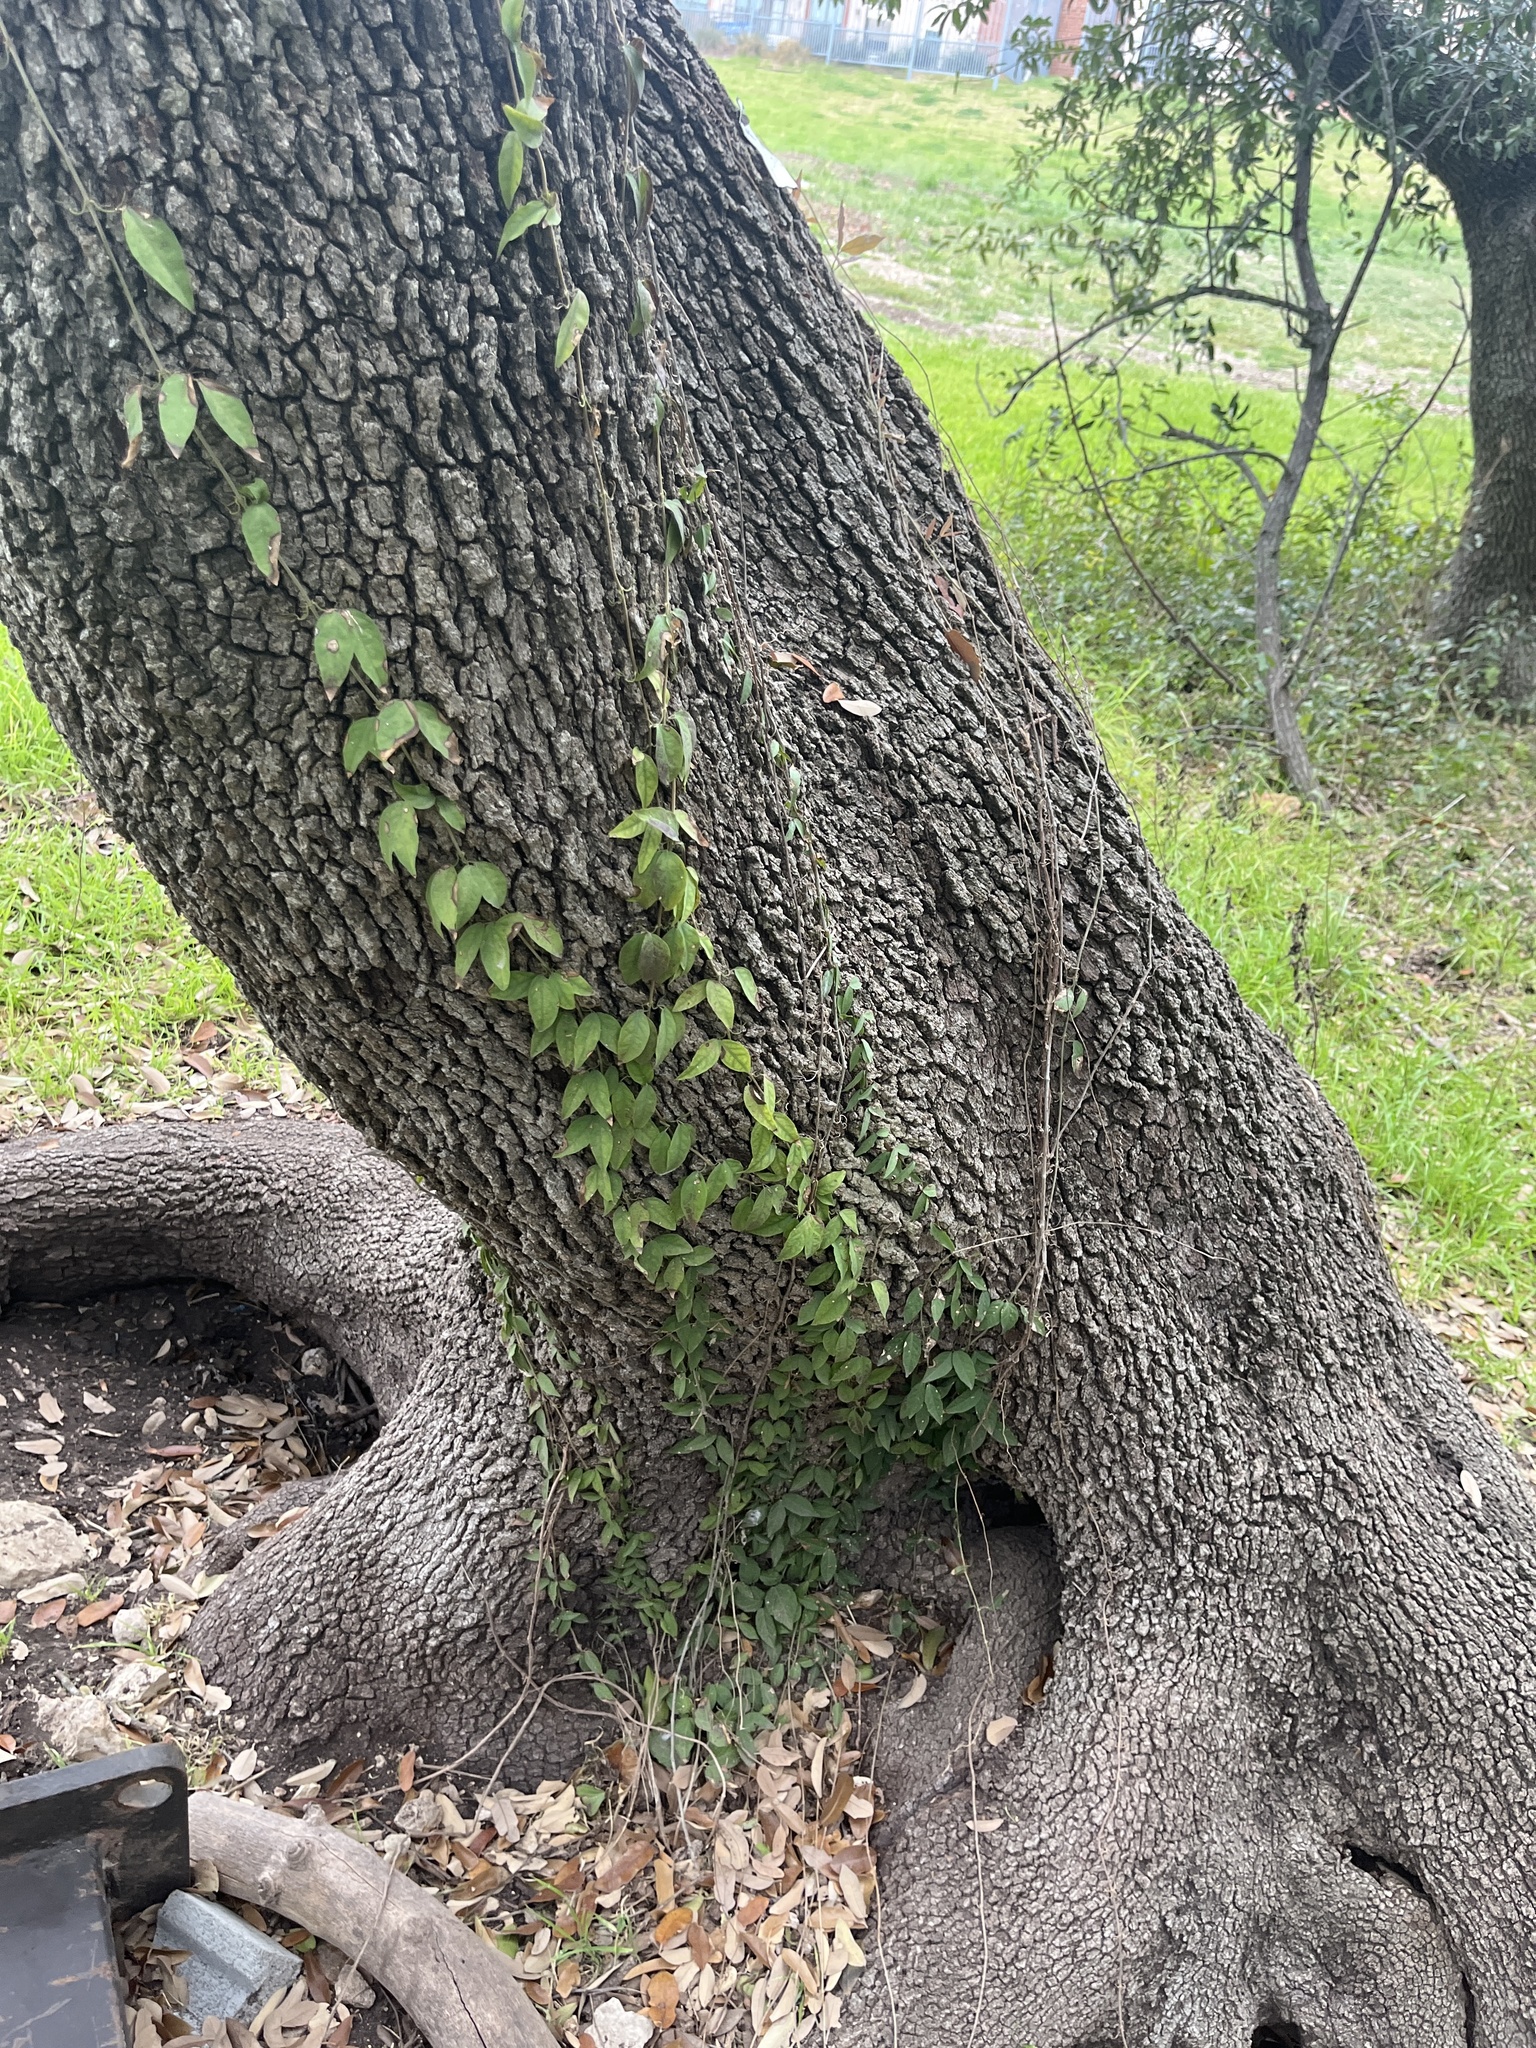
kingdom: Plantae
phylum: Tracheophyta
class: Magnoliopsida
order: Lamiales
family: Bignoniaceae
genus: Dolichandra
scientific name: Dolichandra unguis-cati
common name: Catclaw vine
